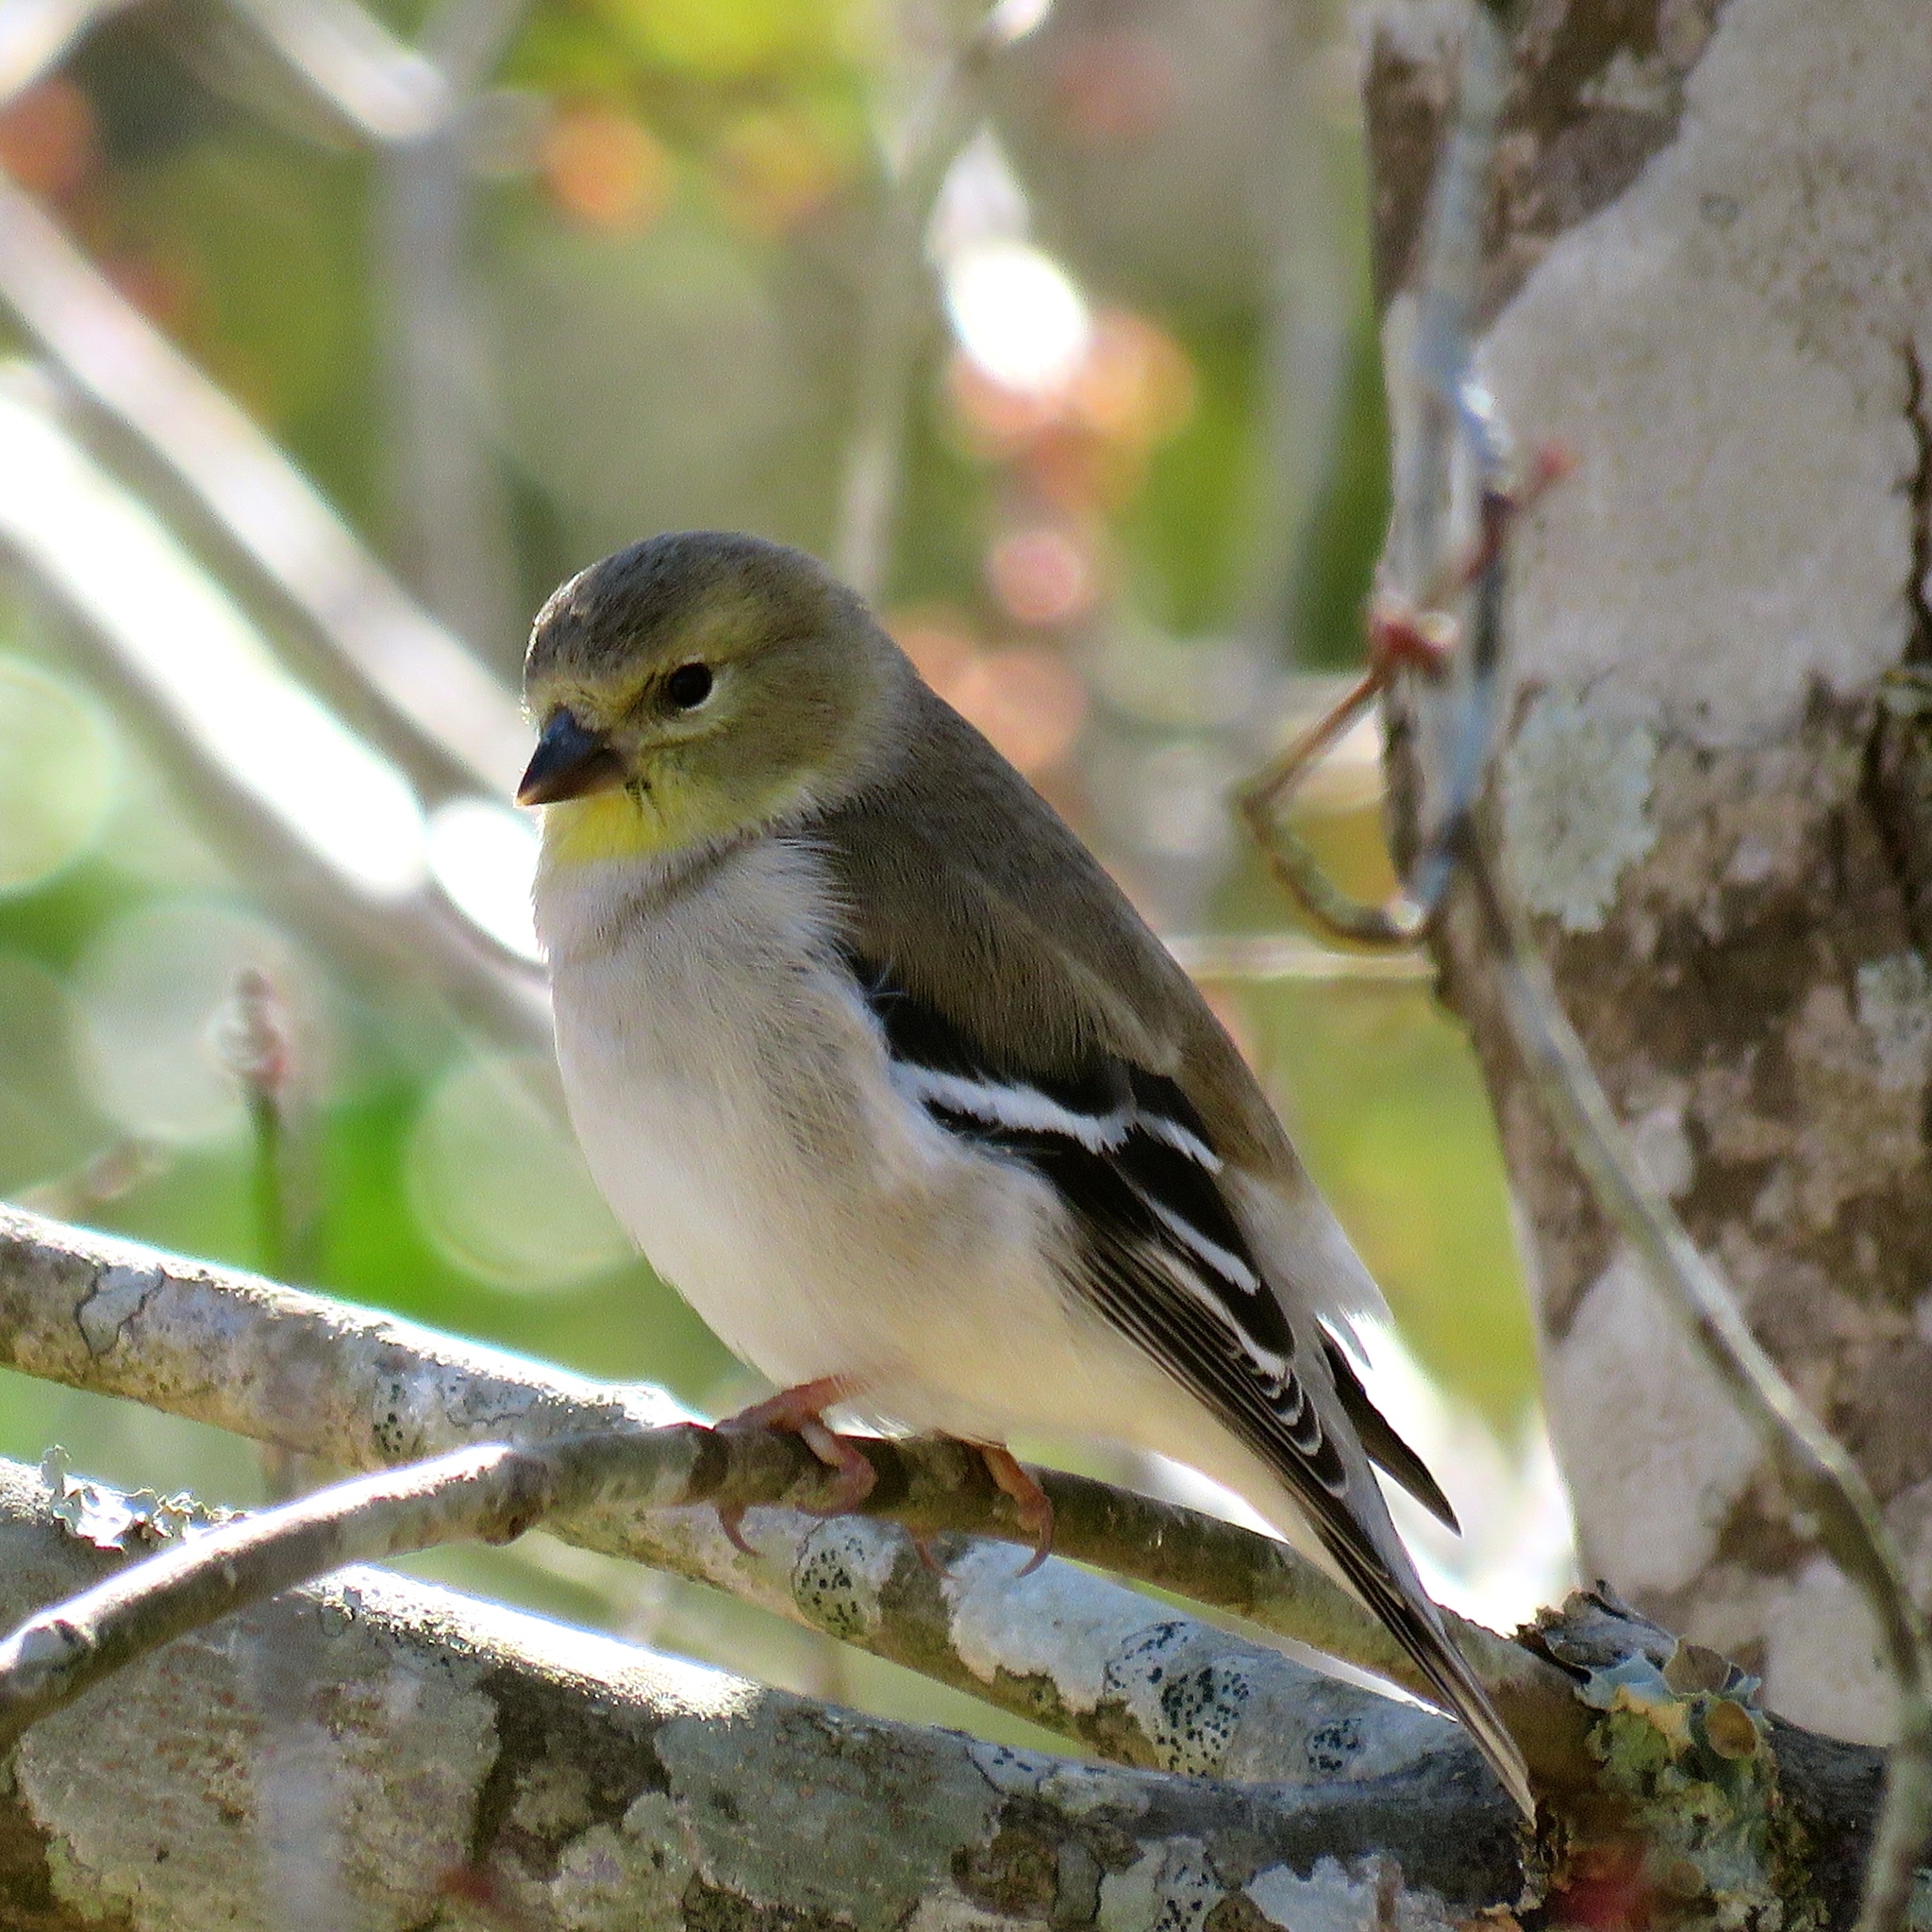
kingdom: Animalia
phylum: Chordata
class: Aves
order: Passeriformes
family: Fringillidae
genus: Spinus
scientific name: Spinus tristis
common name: American goldfinch
